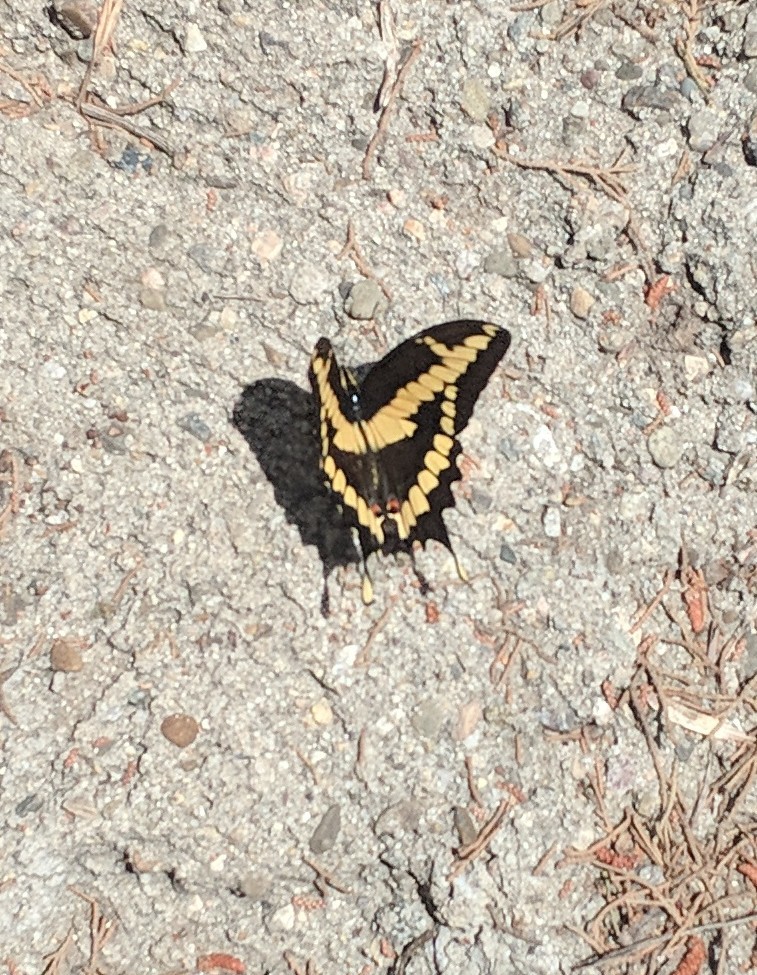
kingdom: Animalia
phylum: Arthropoda
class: Insecta
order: Lepidoptera
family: Papilionidae
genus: Papilio
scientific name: Papilio rumiko
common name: Western giant swallowtail
